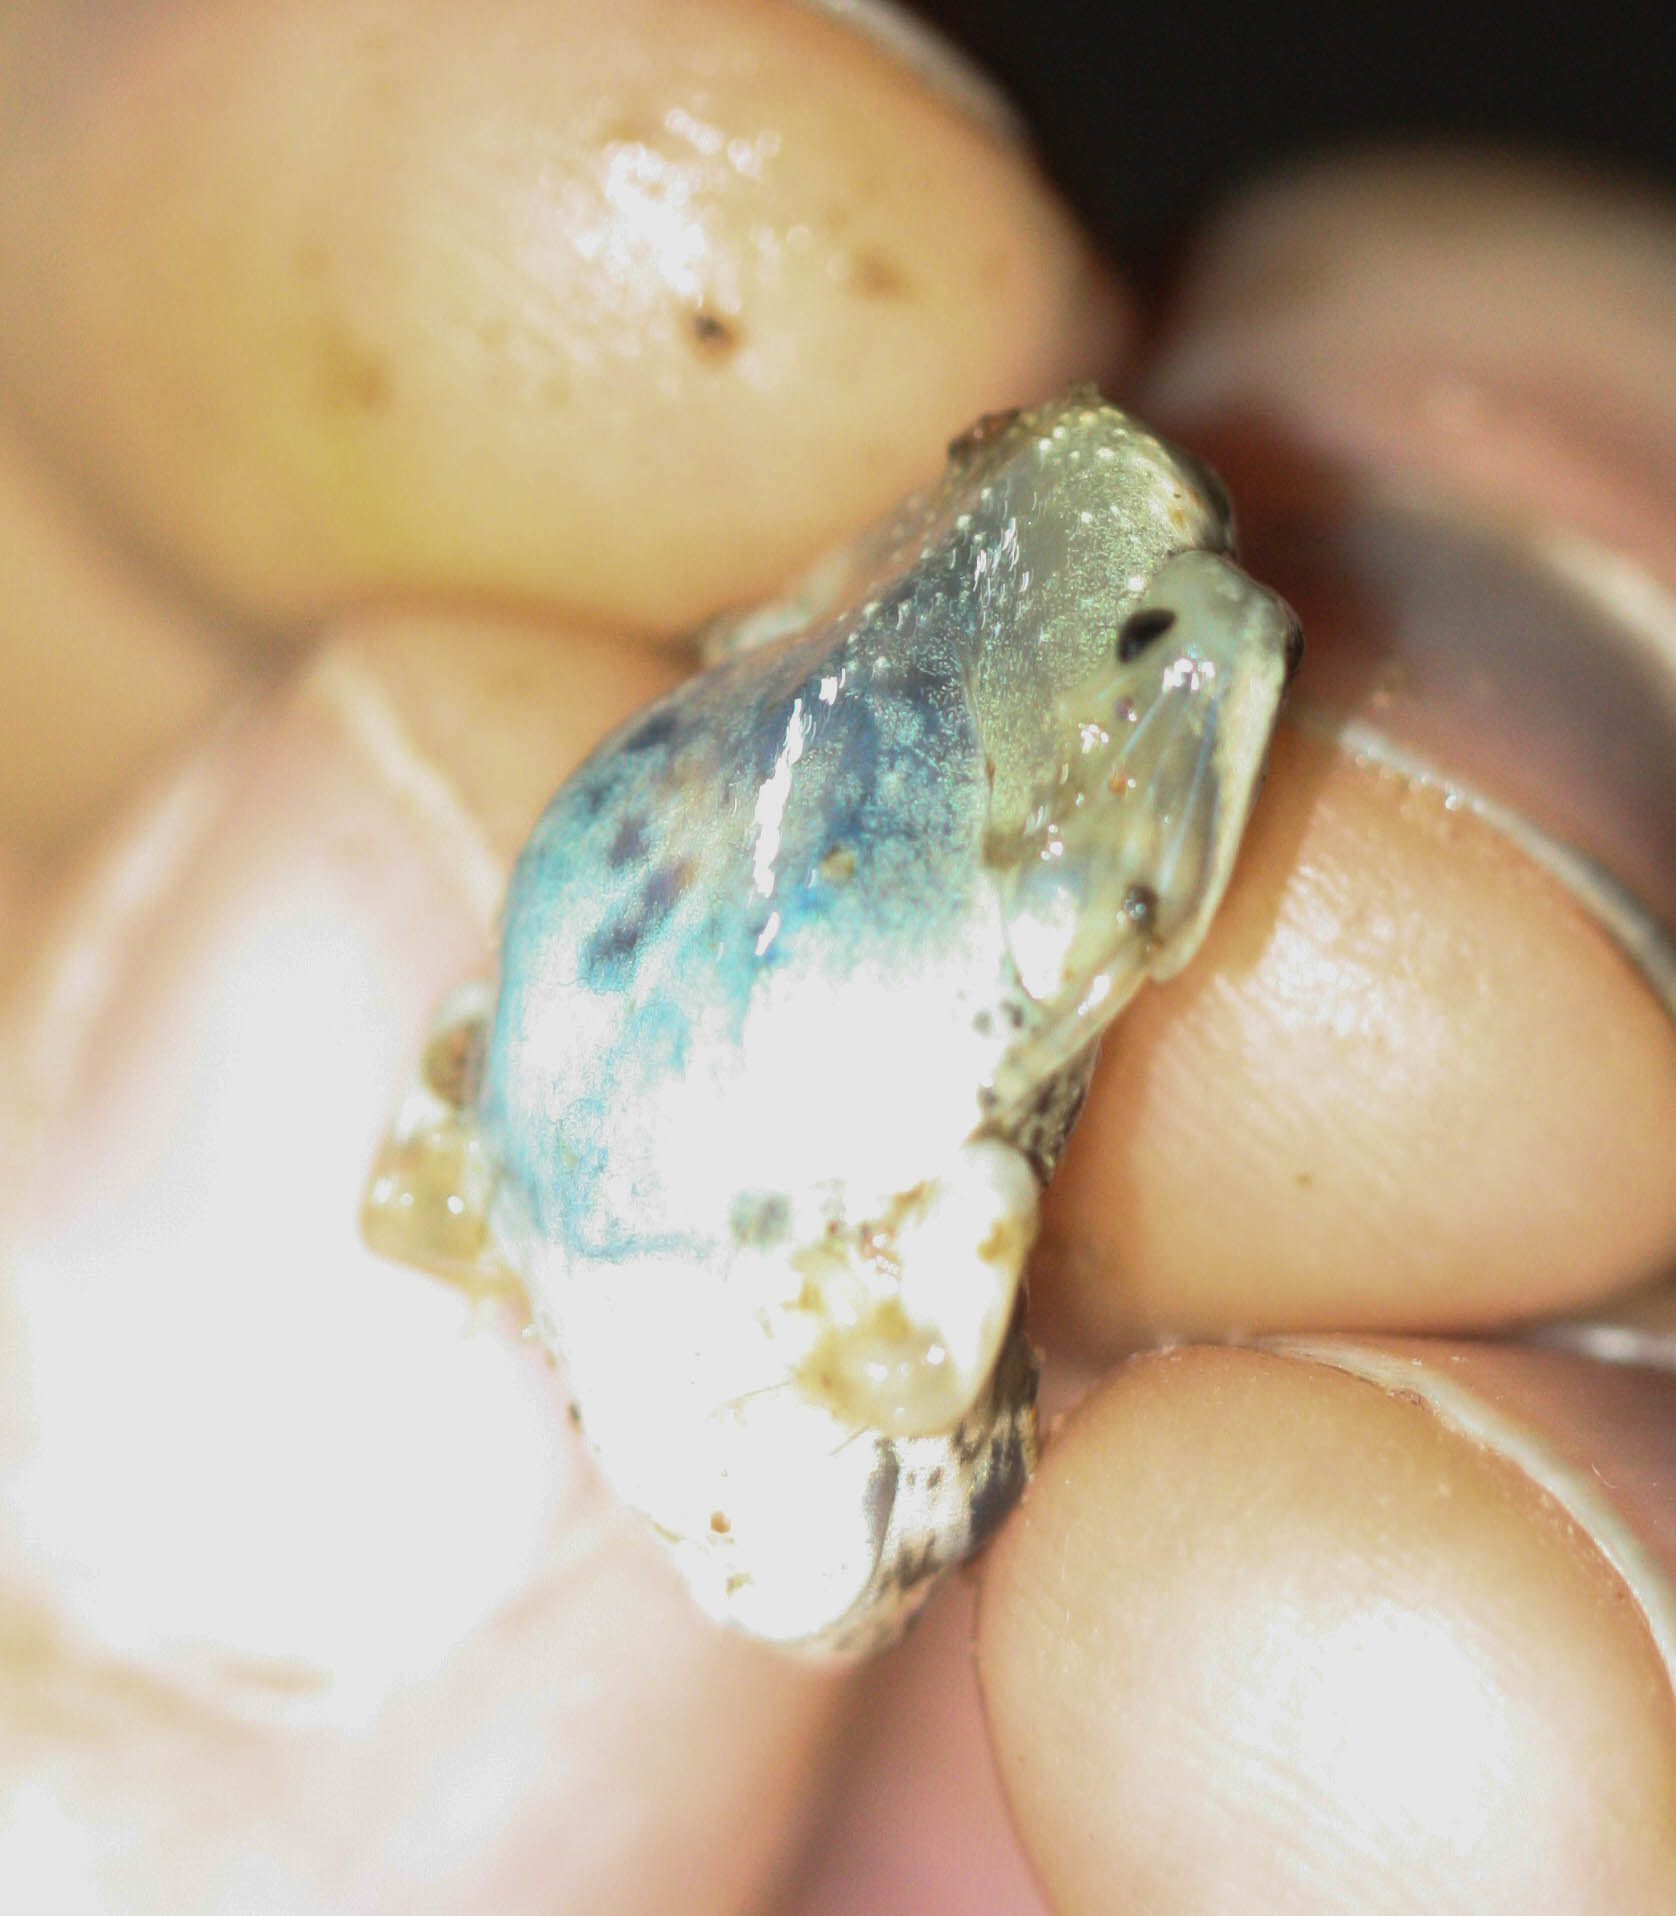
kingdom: Animalia
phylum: Chordata
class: Amphibia
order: Anura
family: Scaphiopodidae
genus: Spea
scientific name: Spea multiplicata
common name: Mexican spadefoot
